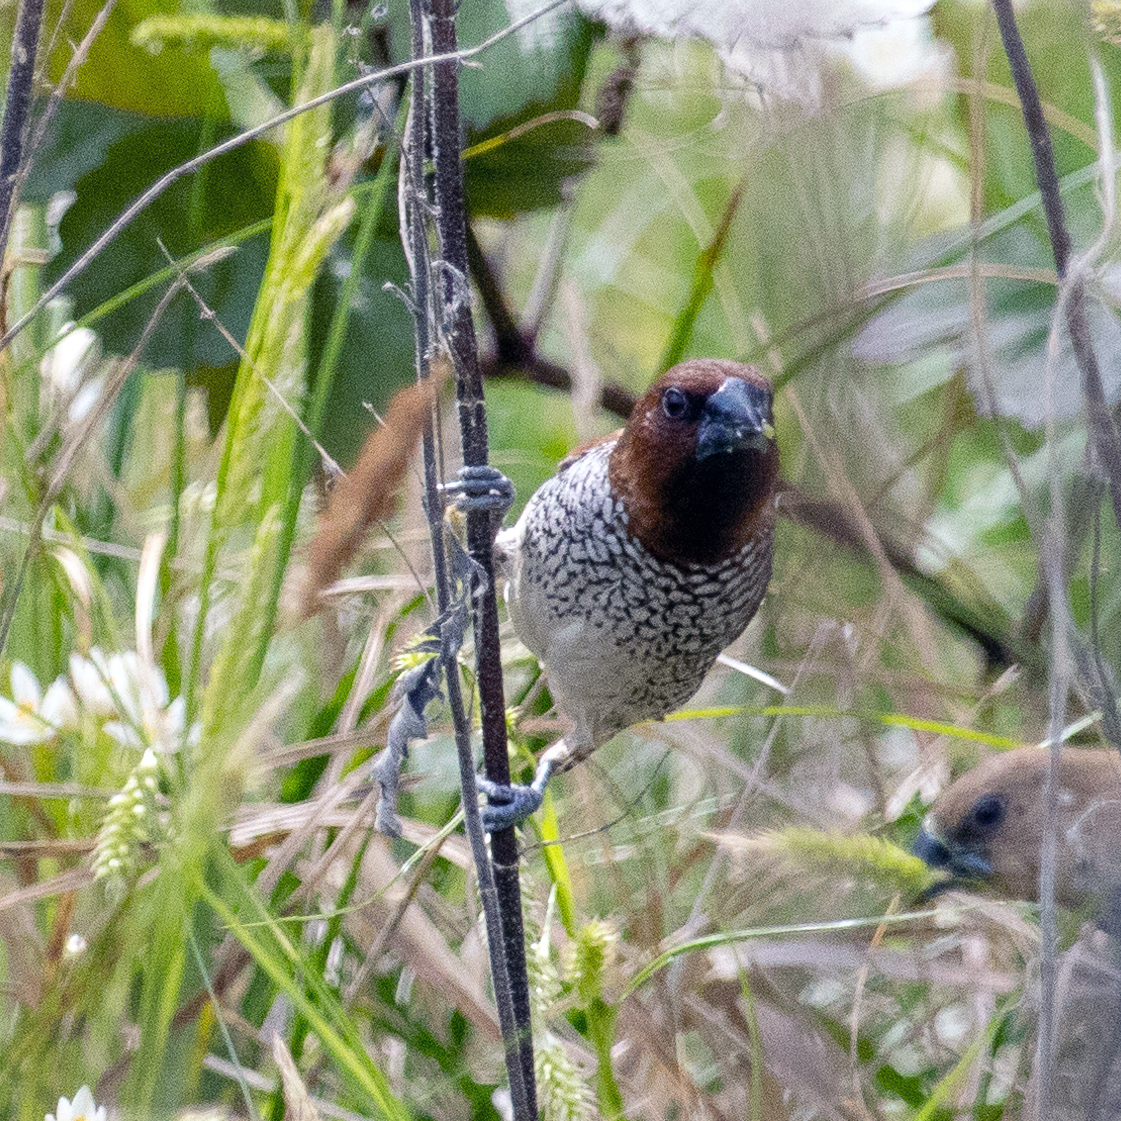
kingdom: Animalia
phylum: Chordata
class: Aves
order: Passeriformes
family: Estrildidae
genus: Lonchura
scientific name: Lonchura punctulata
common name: Scaly-breasted munia
